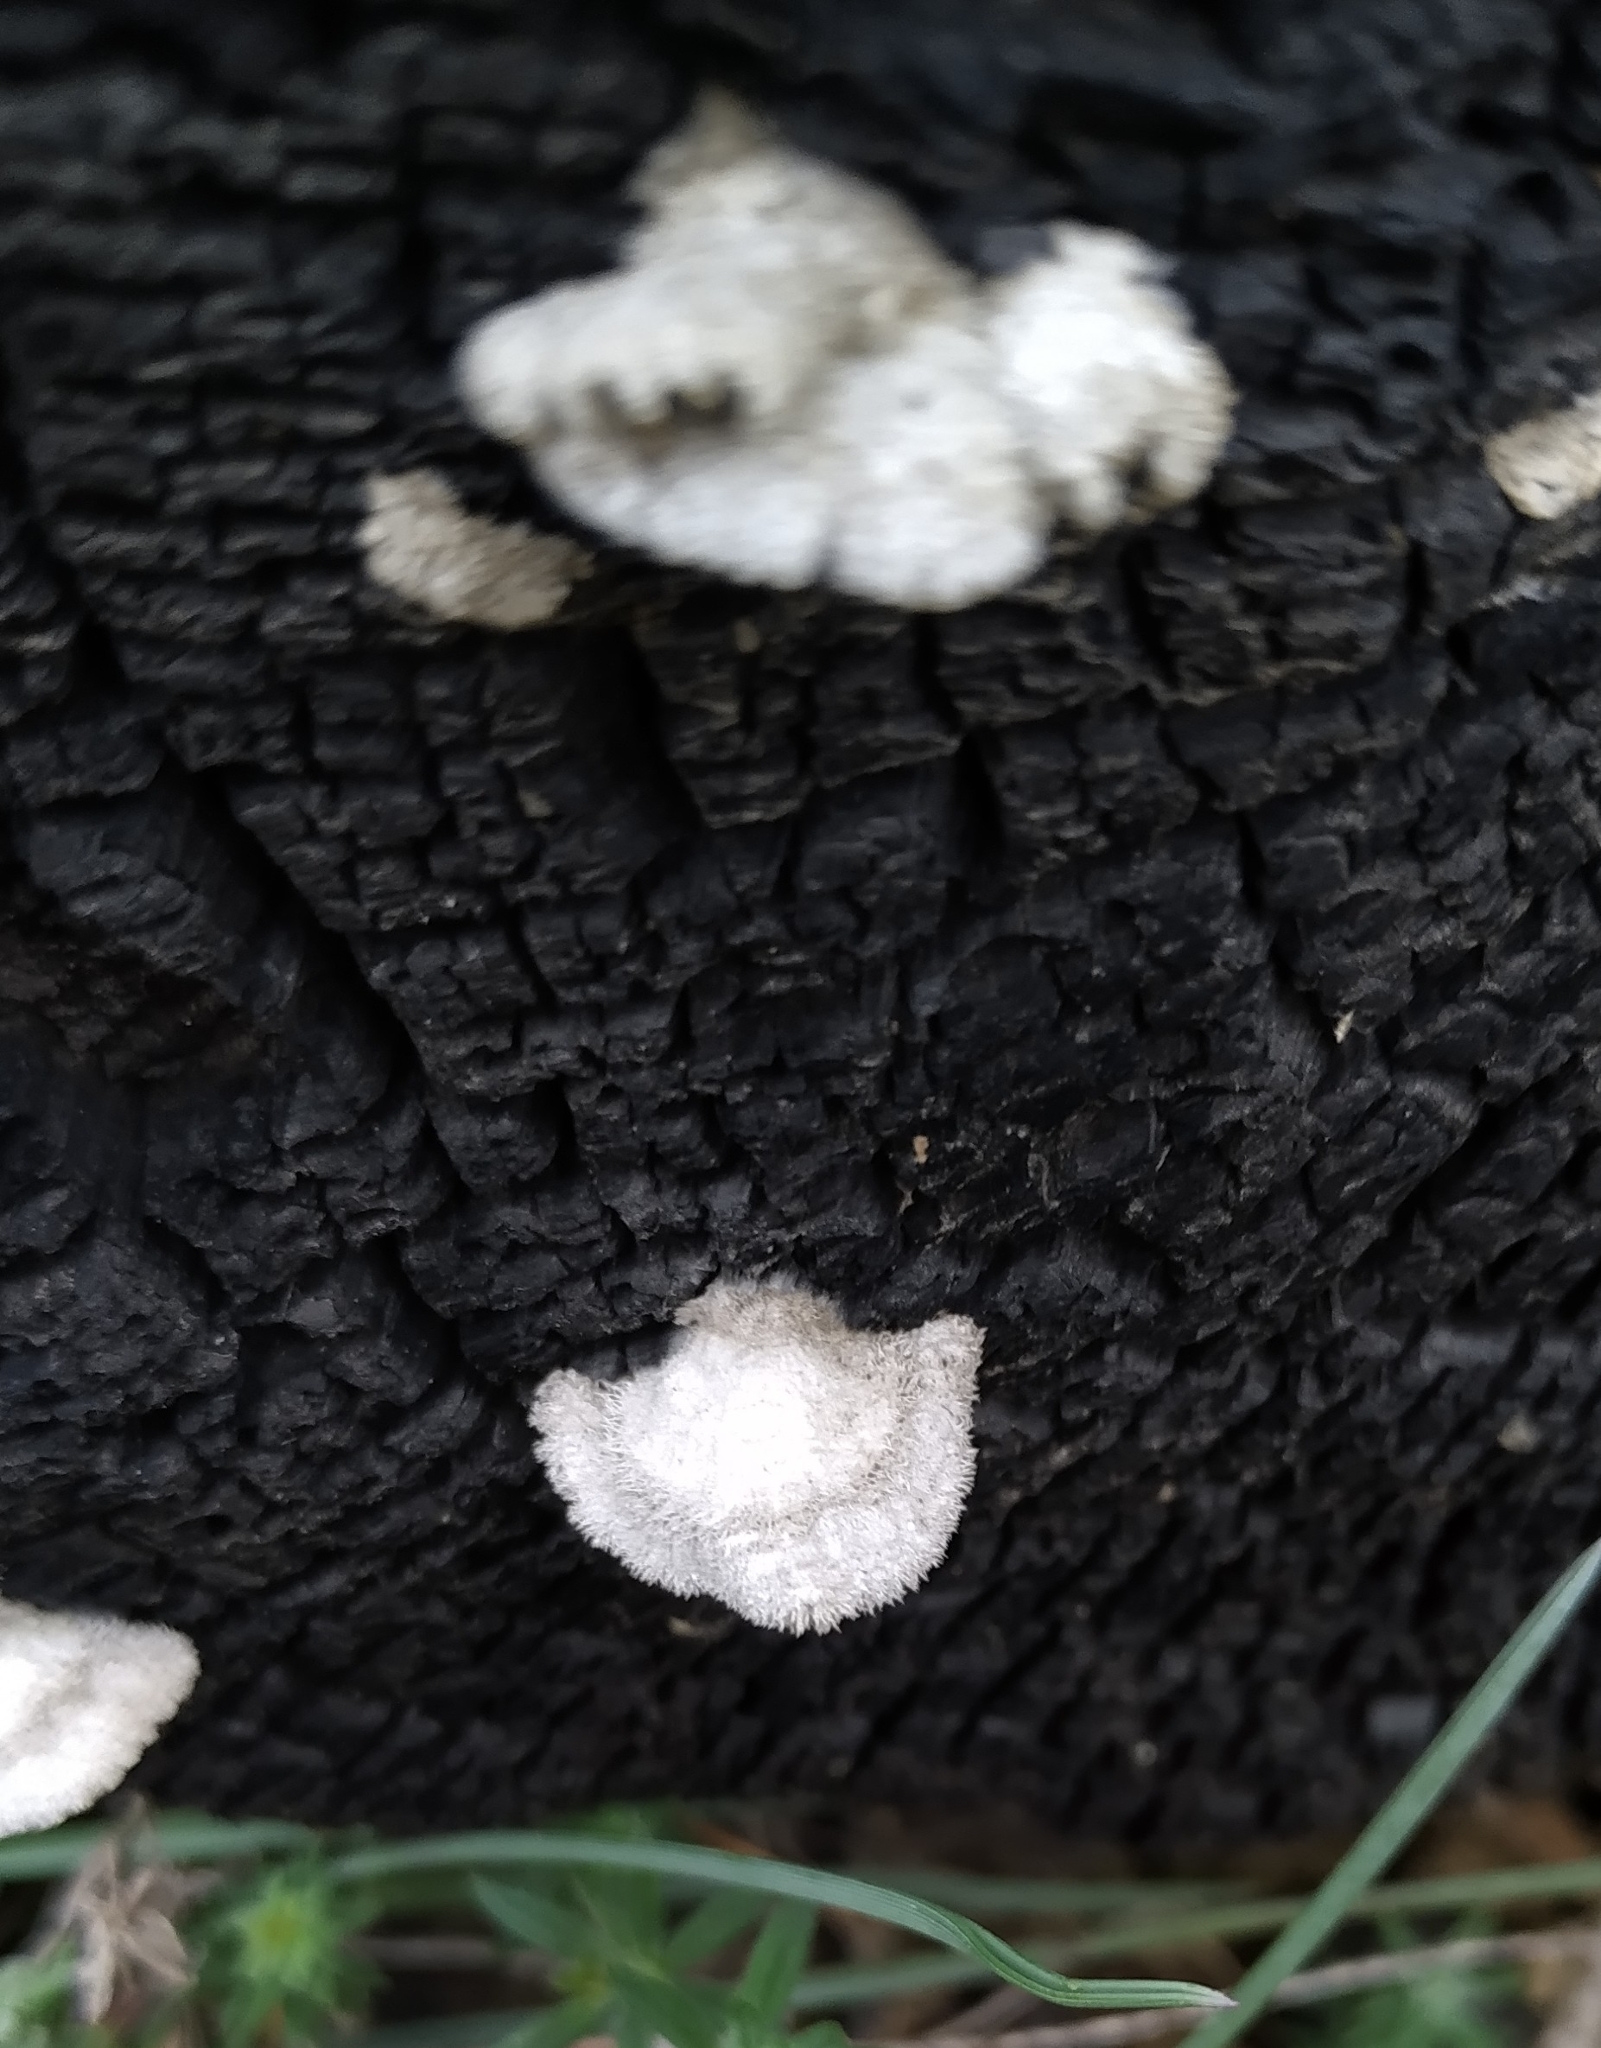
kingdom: Fungi
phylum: Basidiomycota
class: Agaricomycetes
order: Agaricales
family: Schizophyllaceae
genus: Schizophyllum
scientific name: Schizophyllum commune
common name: Common porecrust
